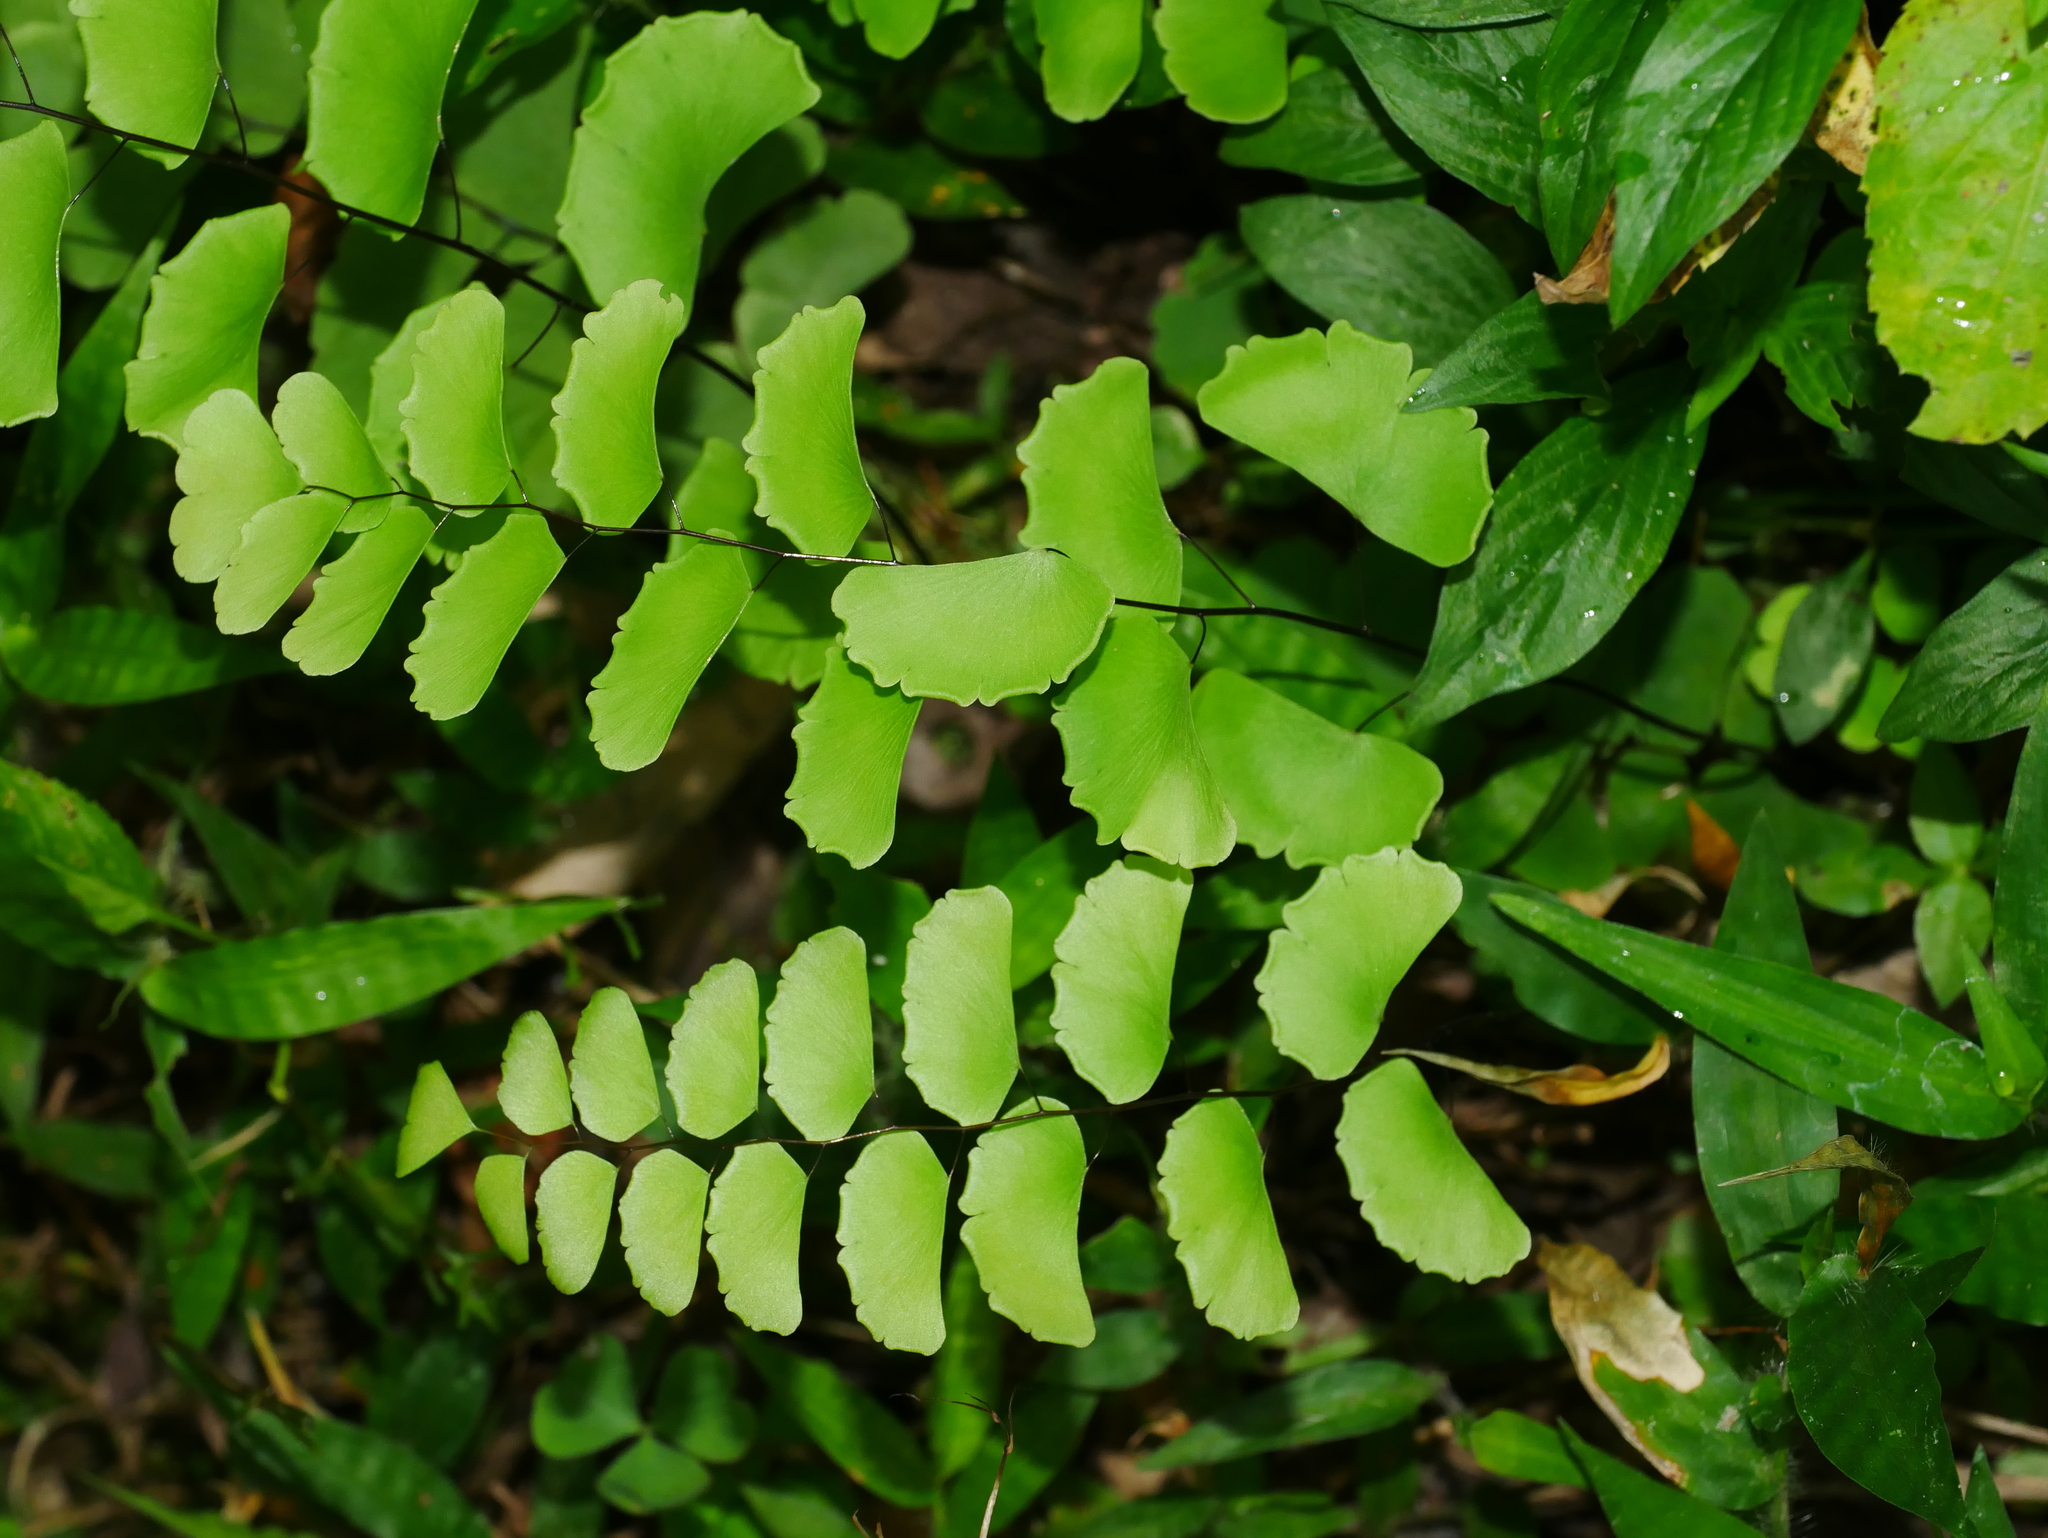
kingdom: Plantae
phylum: Tracheophyta
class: Polypodiopsida
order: Polypodiales
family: Pteridaceae
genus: Adiantum
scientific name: Adiantum philippense
